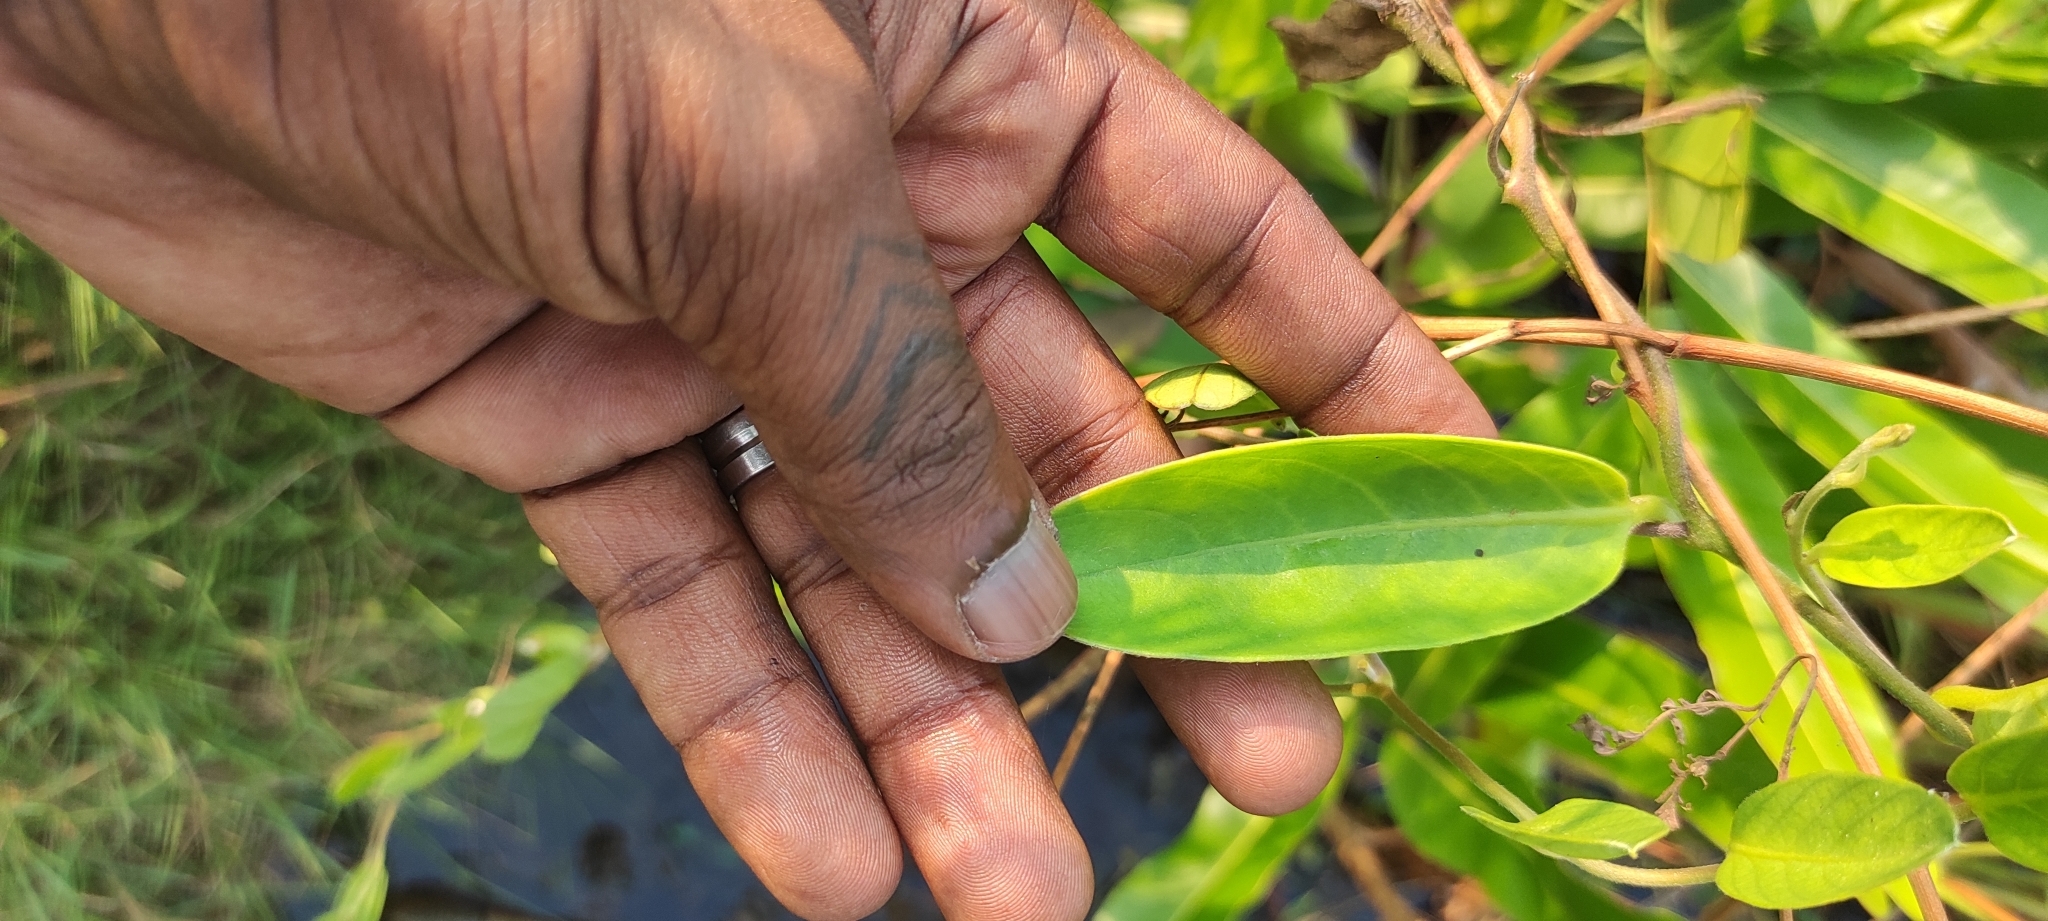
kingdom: Plantae
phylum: Tracheophyta
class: Magnoliopsida
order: Solanales
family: Convolvulaceae
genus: Aniseia
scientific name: Aniseia martinicensis
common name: Kulayadambu
